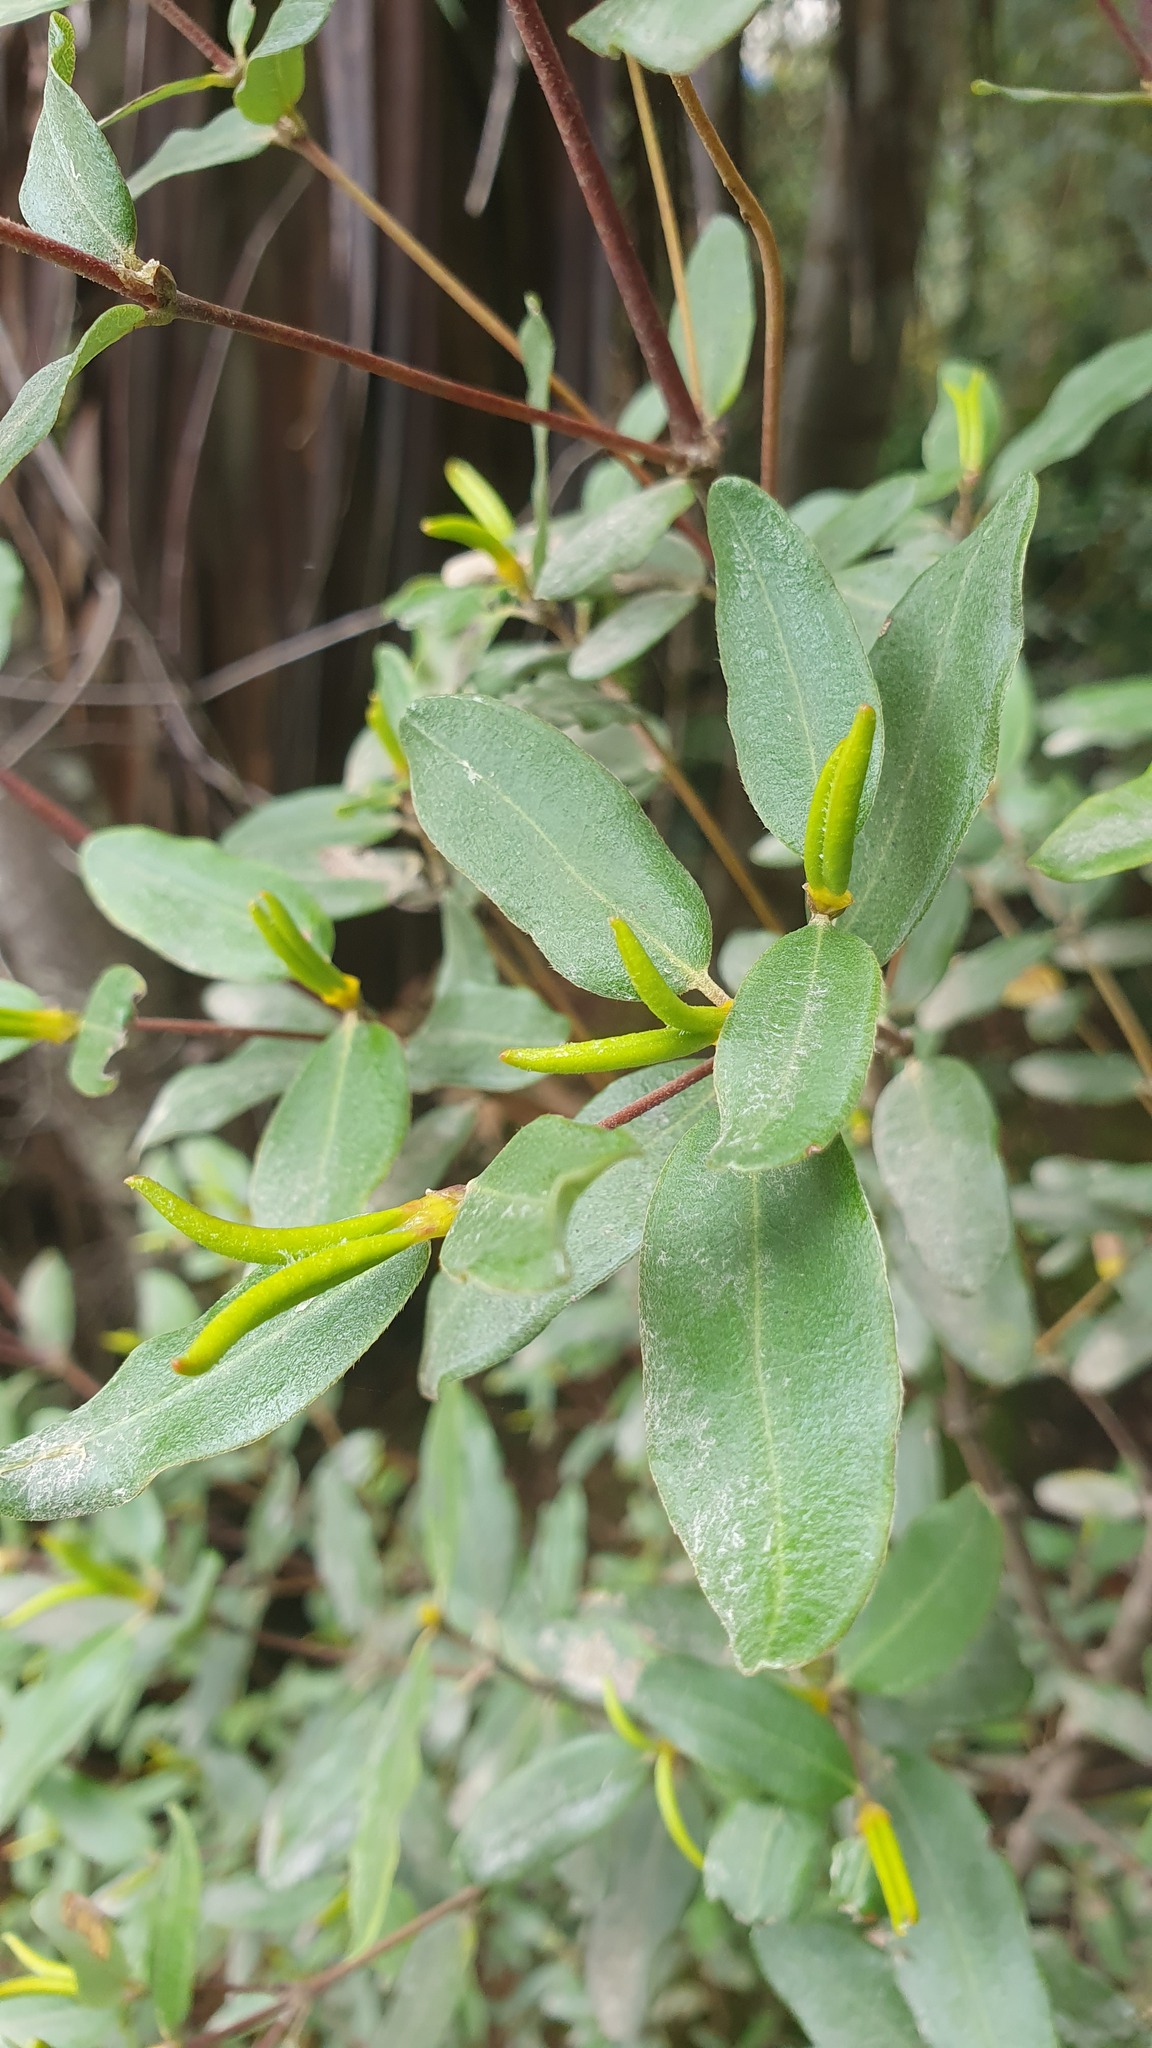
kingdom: Plantae
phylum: Tracheophyta
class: Magnoliopsida
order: Oxalidales
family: Cunoniaceae
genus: Eucryphia
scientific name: Eucryphia lucida
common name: Leatherwood
